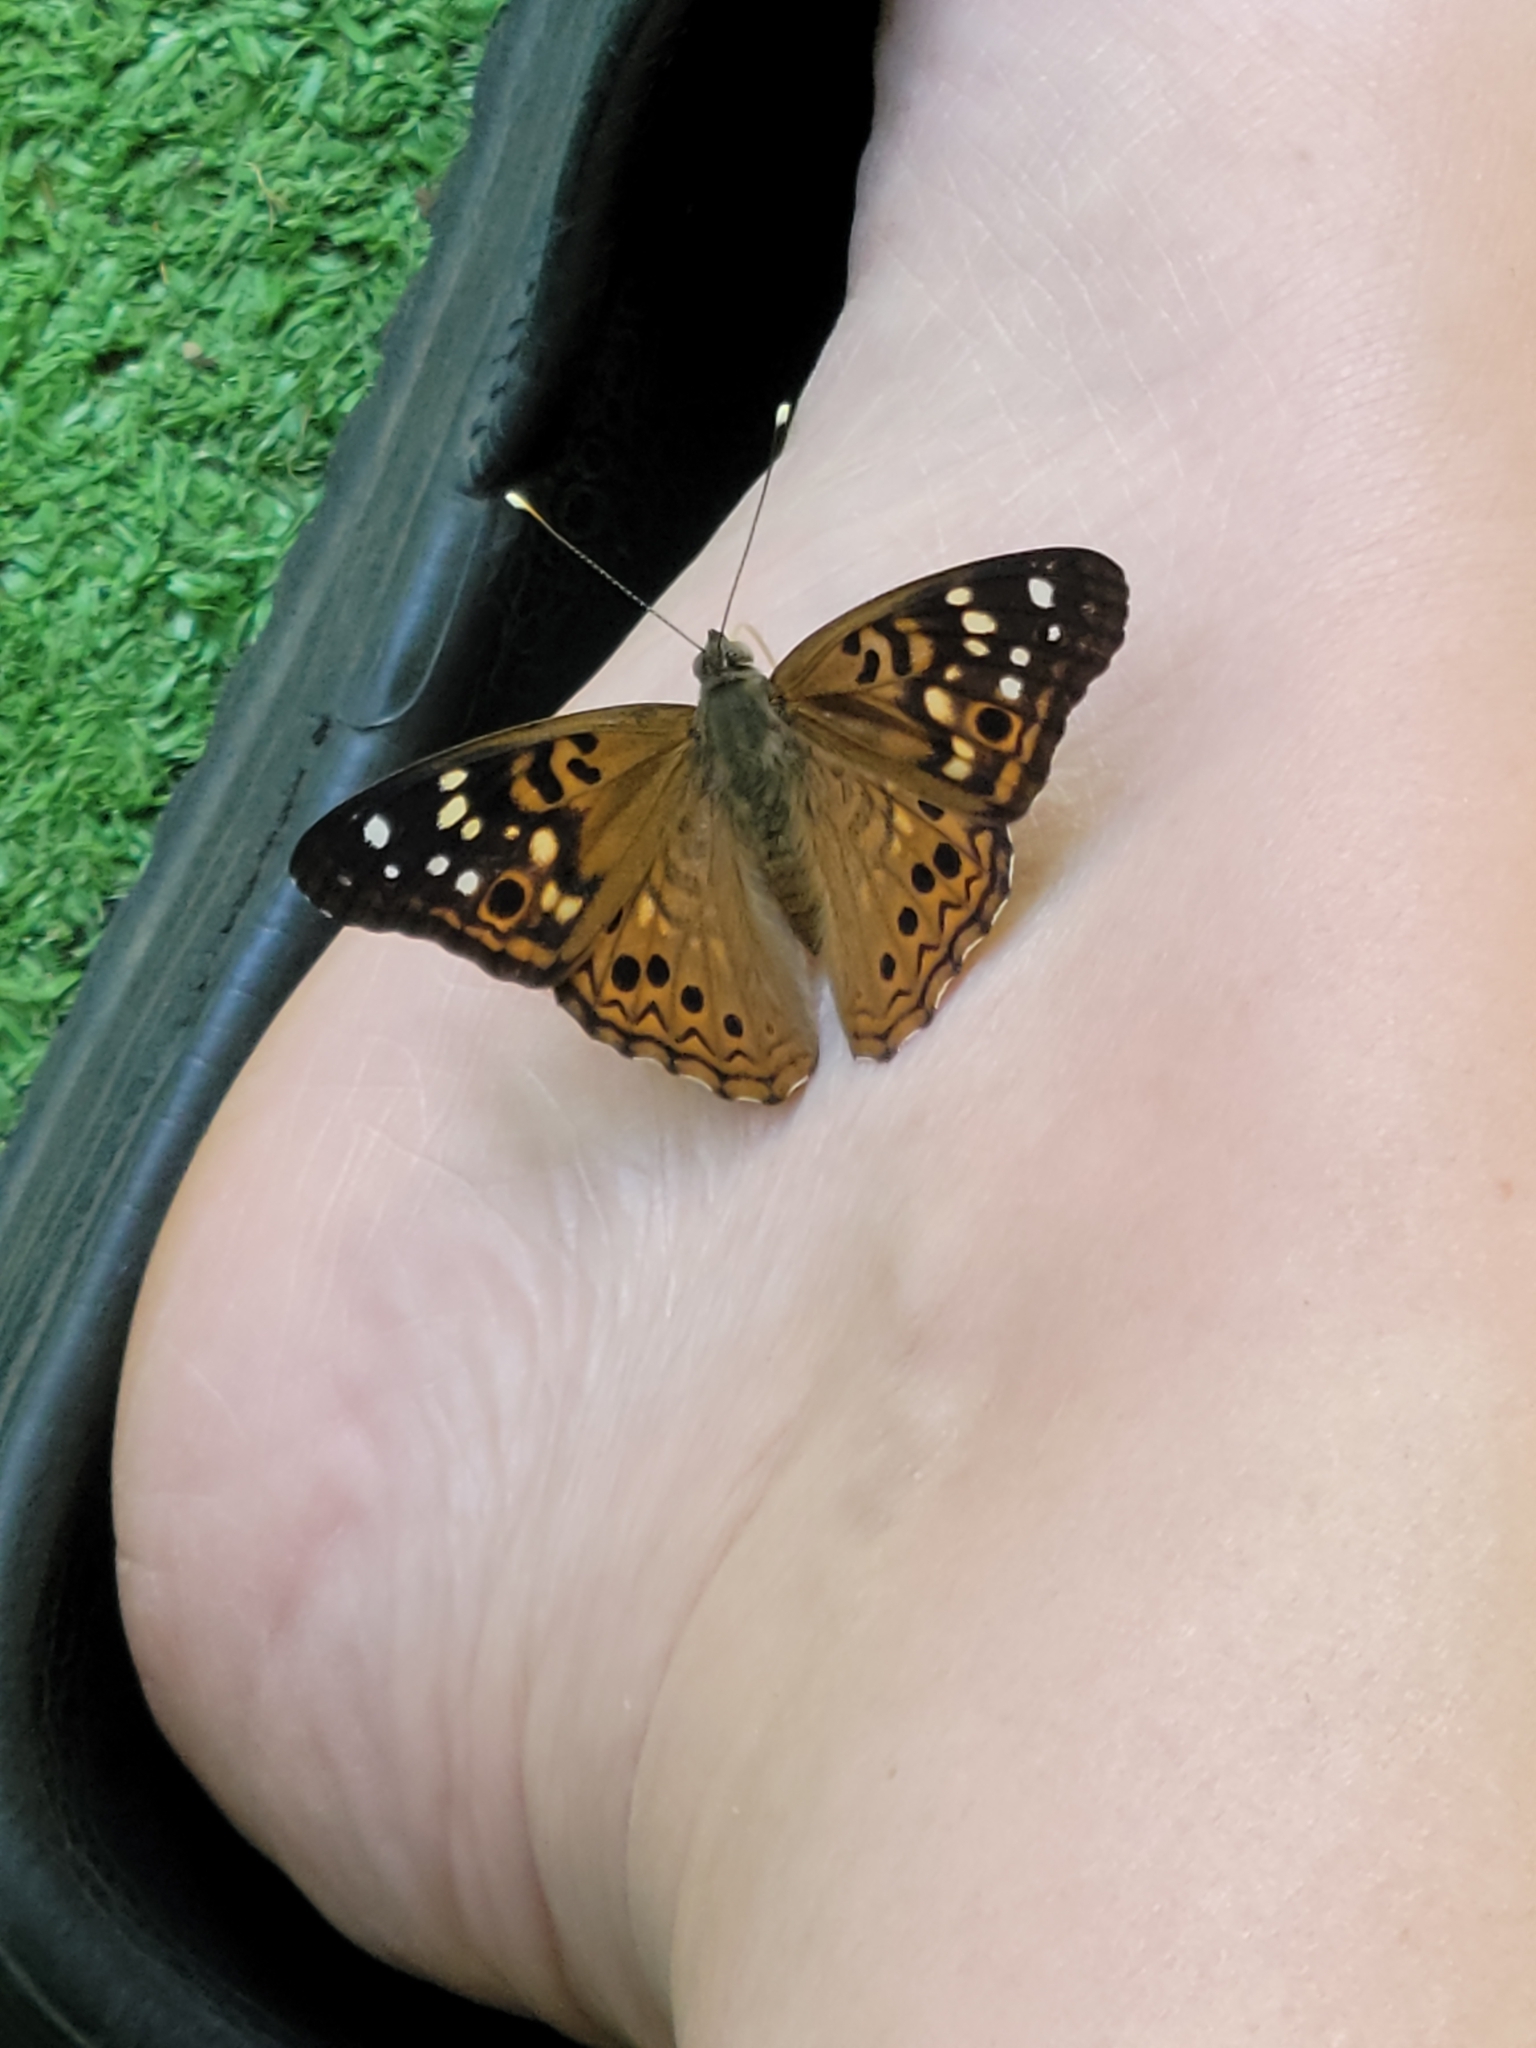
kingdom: Animalia
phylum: Arthropoda
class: Insecta
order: Lepidoptera
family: Nymphalidae
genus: Asterocampa
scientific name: Asterocampa celtis
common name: Hackberry emperor
